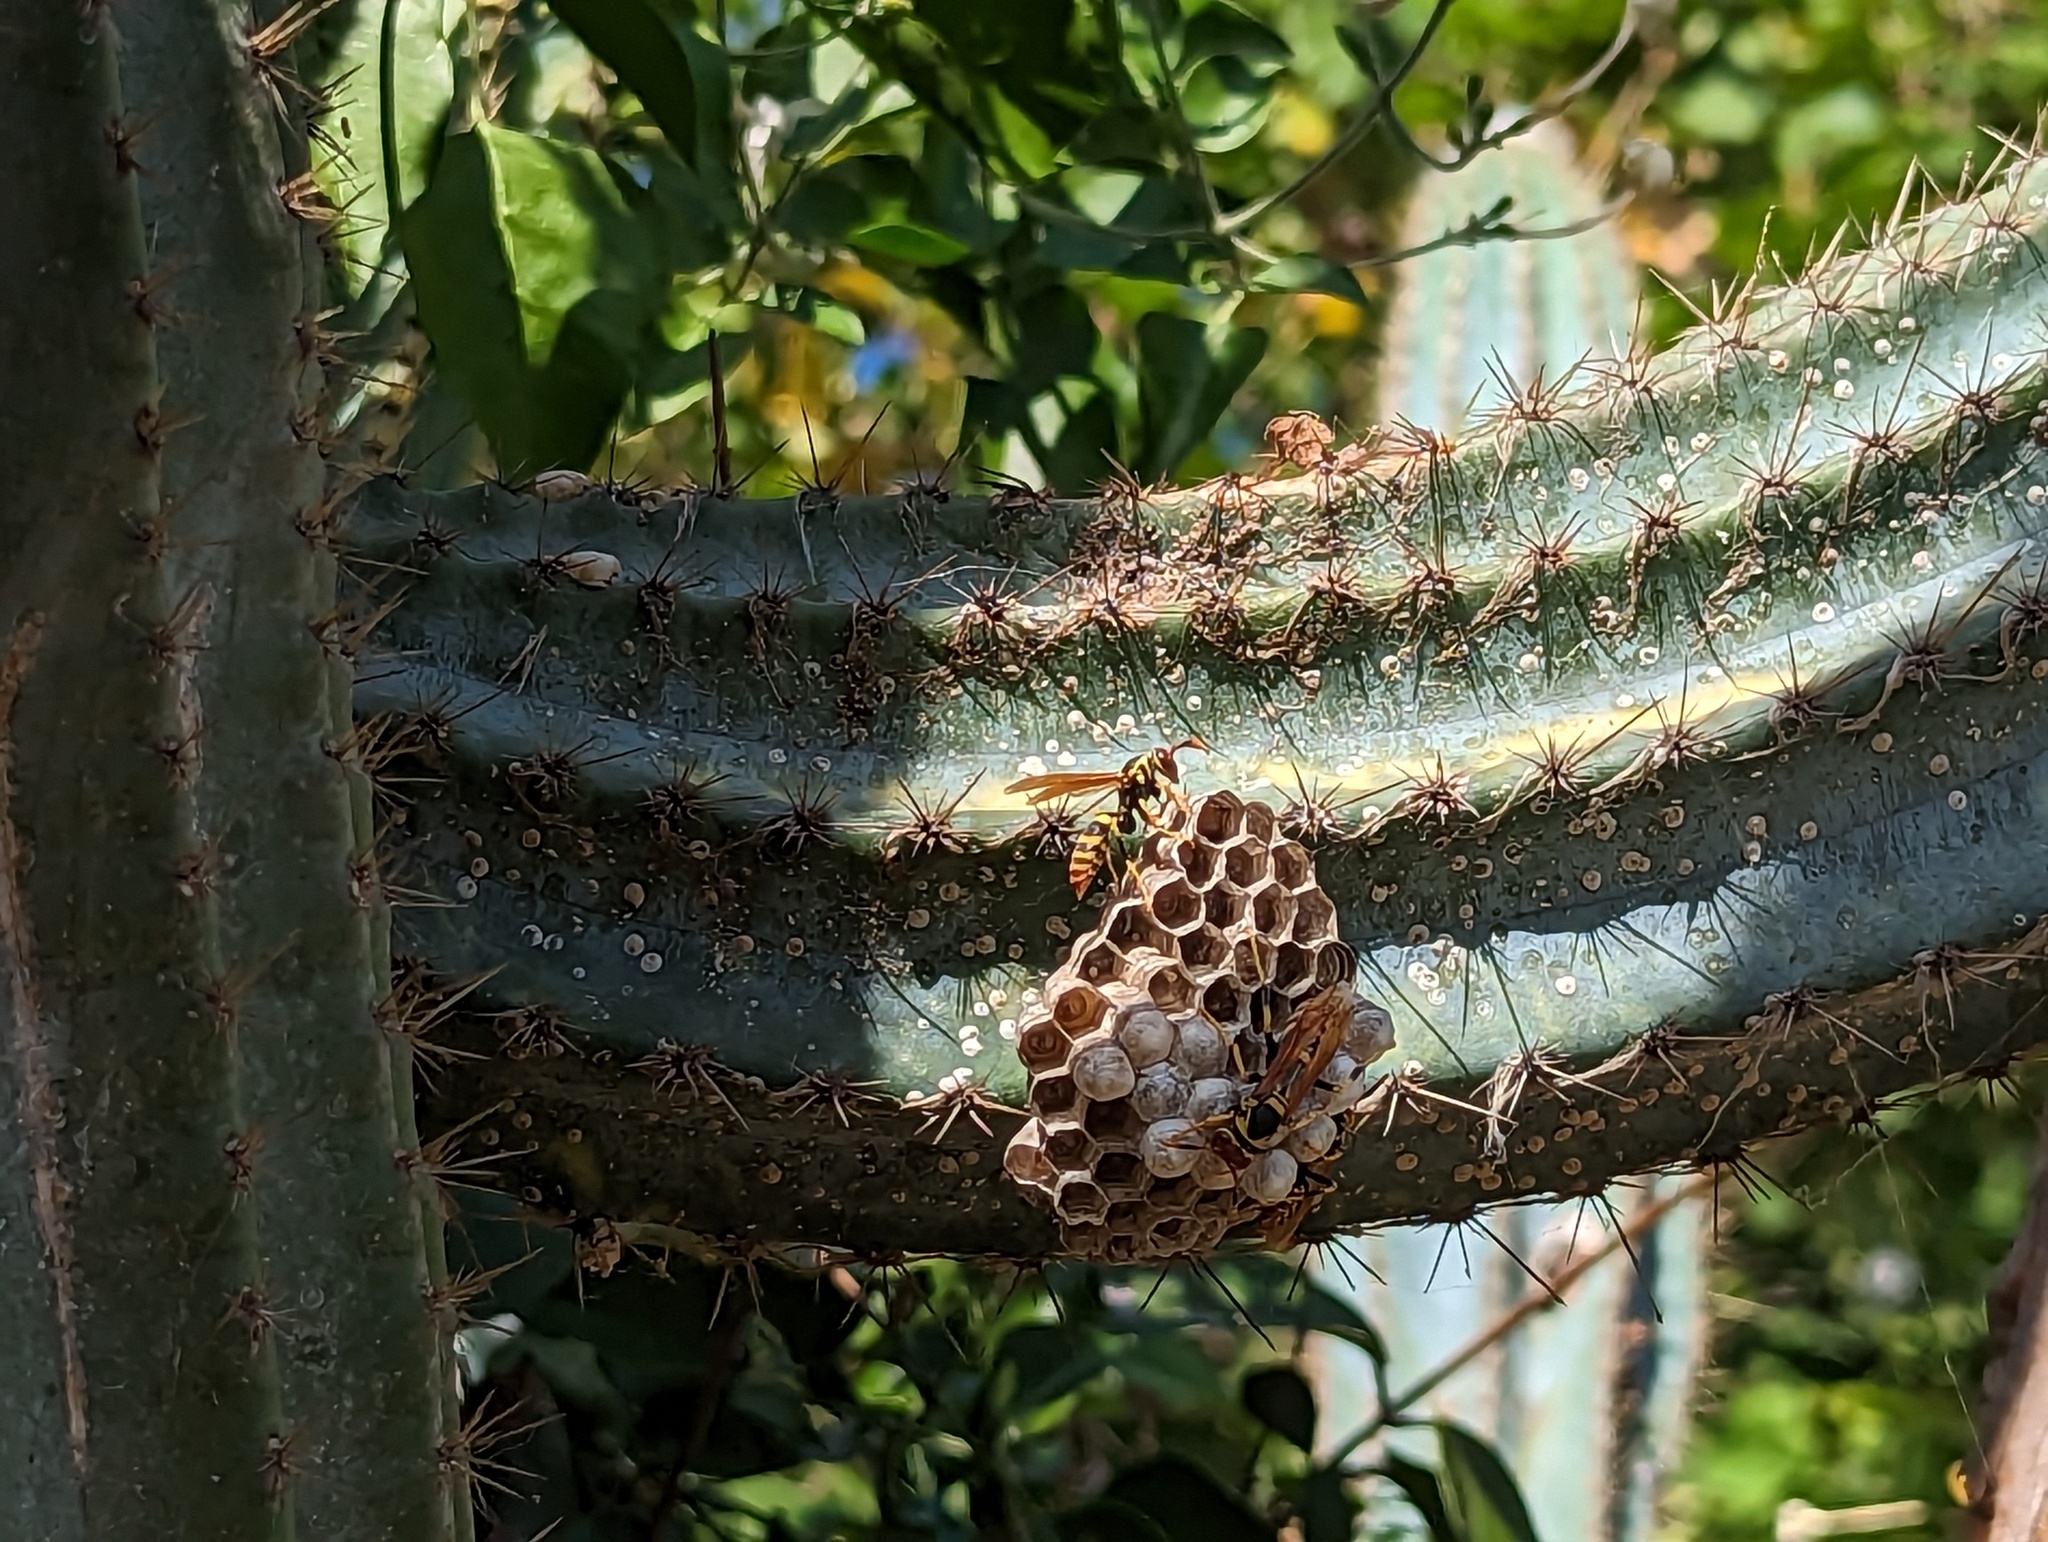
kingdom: Animalia
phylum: Arthropoda
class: Insecta
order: Hymenoptera
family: Eumenidae
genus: Polistes
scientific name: Polistes crinitus
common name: Jack spaniard
